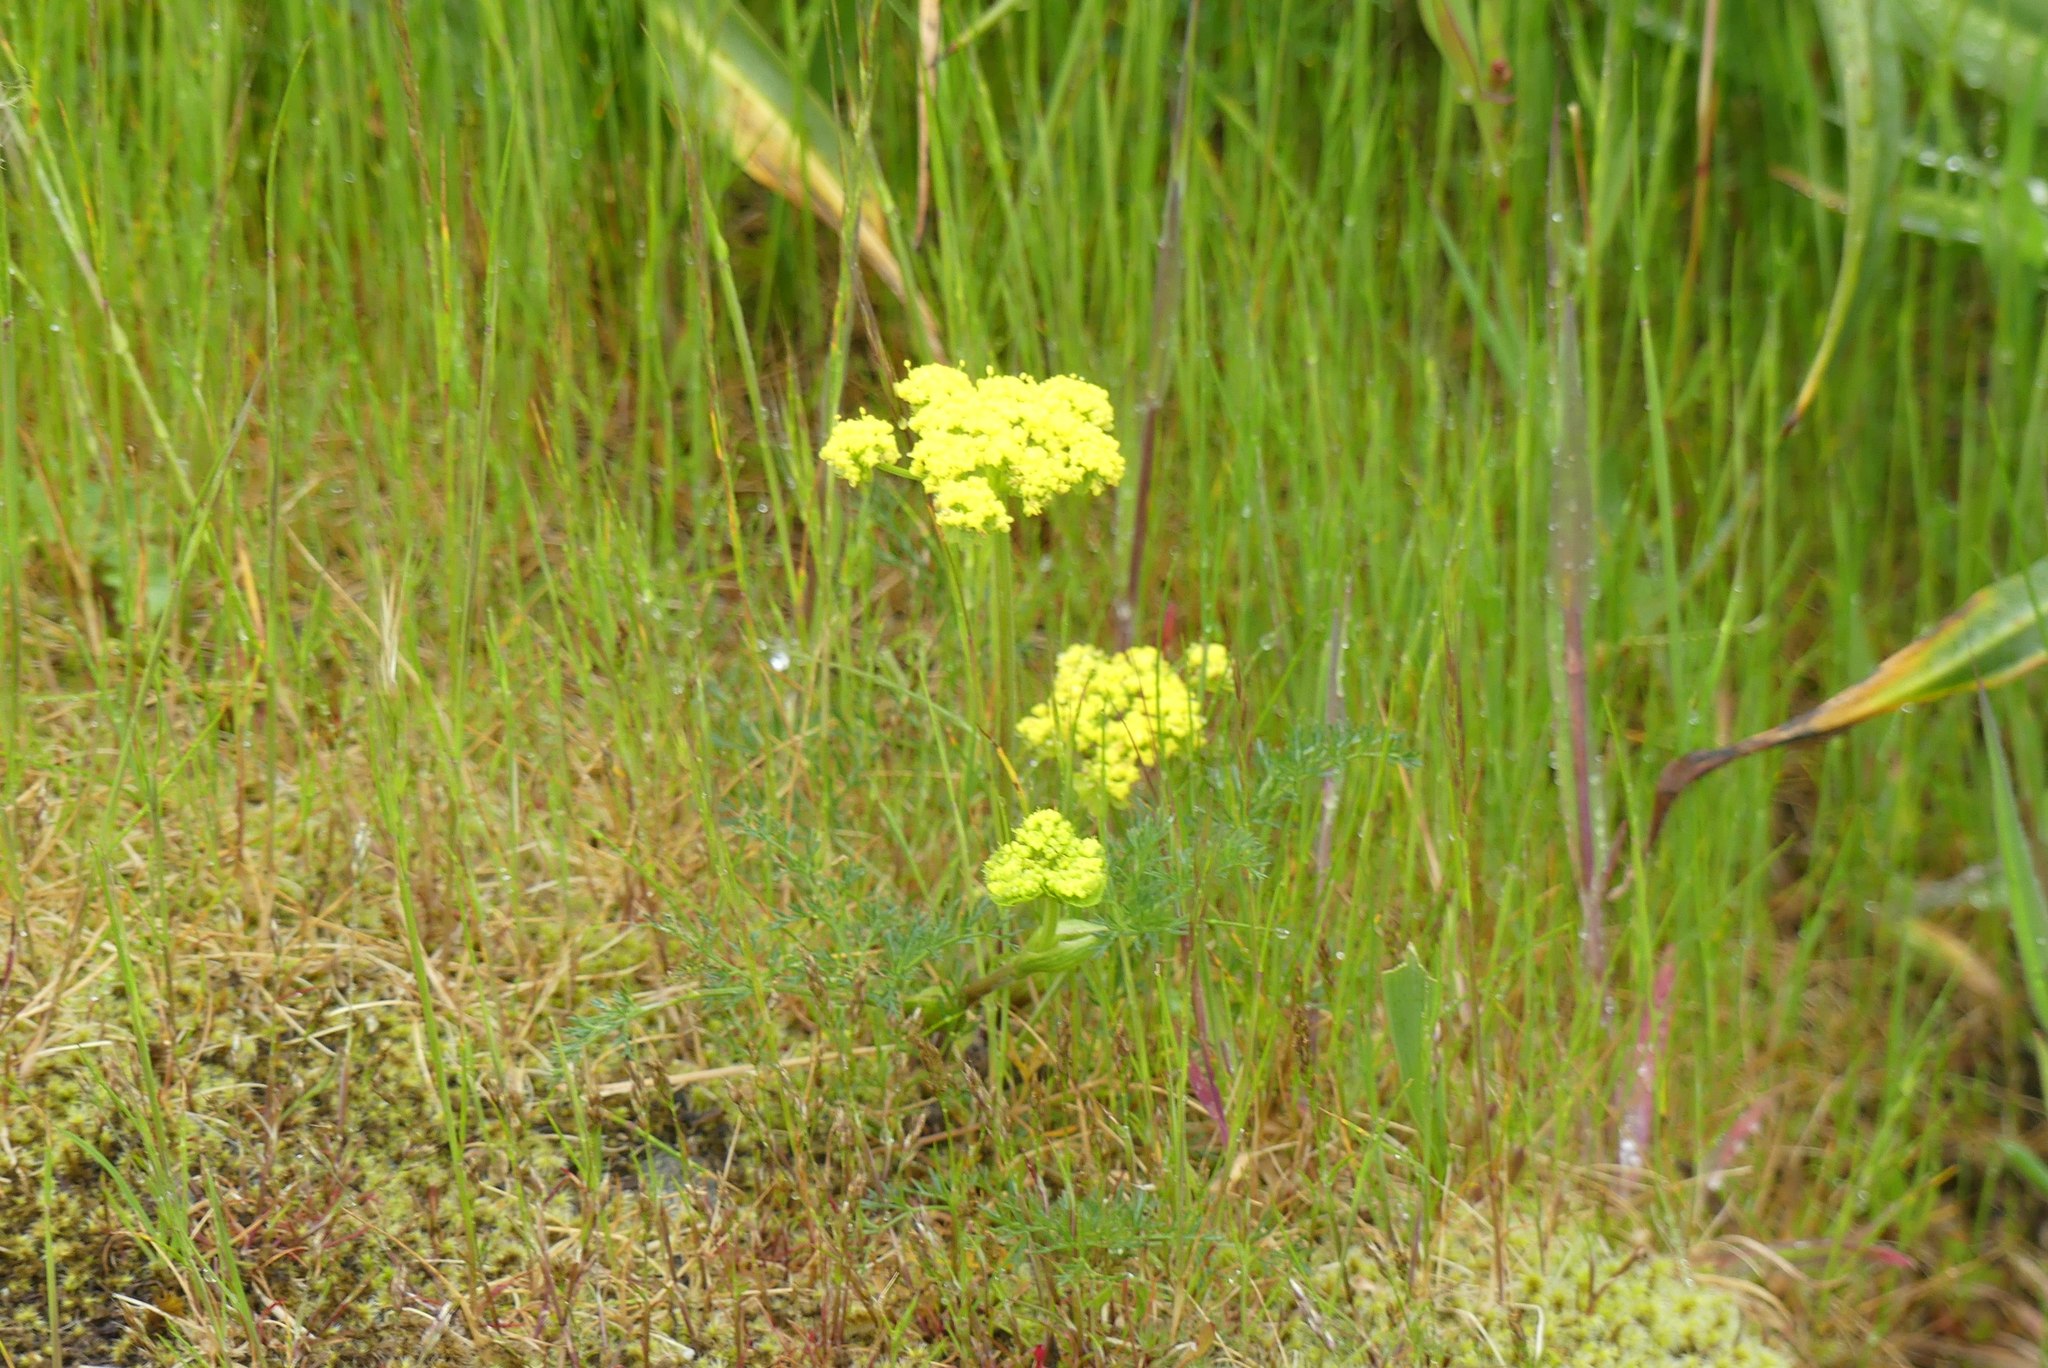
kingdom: Plantae
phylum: Tracheophyta
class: Magnoliopsida
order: Apiales
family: Apiaceae
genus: Lomatium
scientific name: Lomatium utriculatum
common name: Fine-leaf desert-parsley
